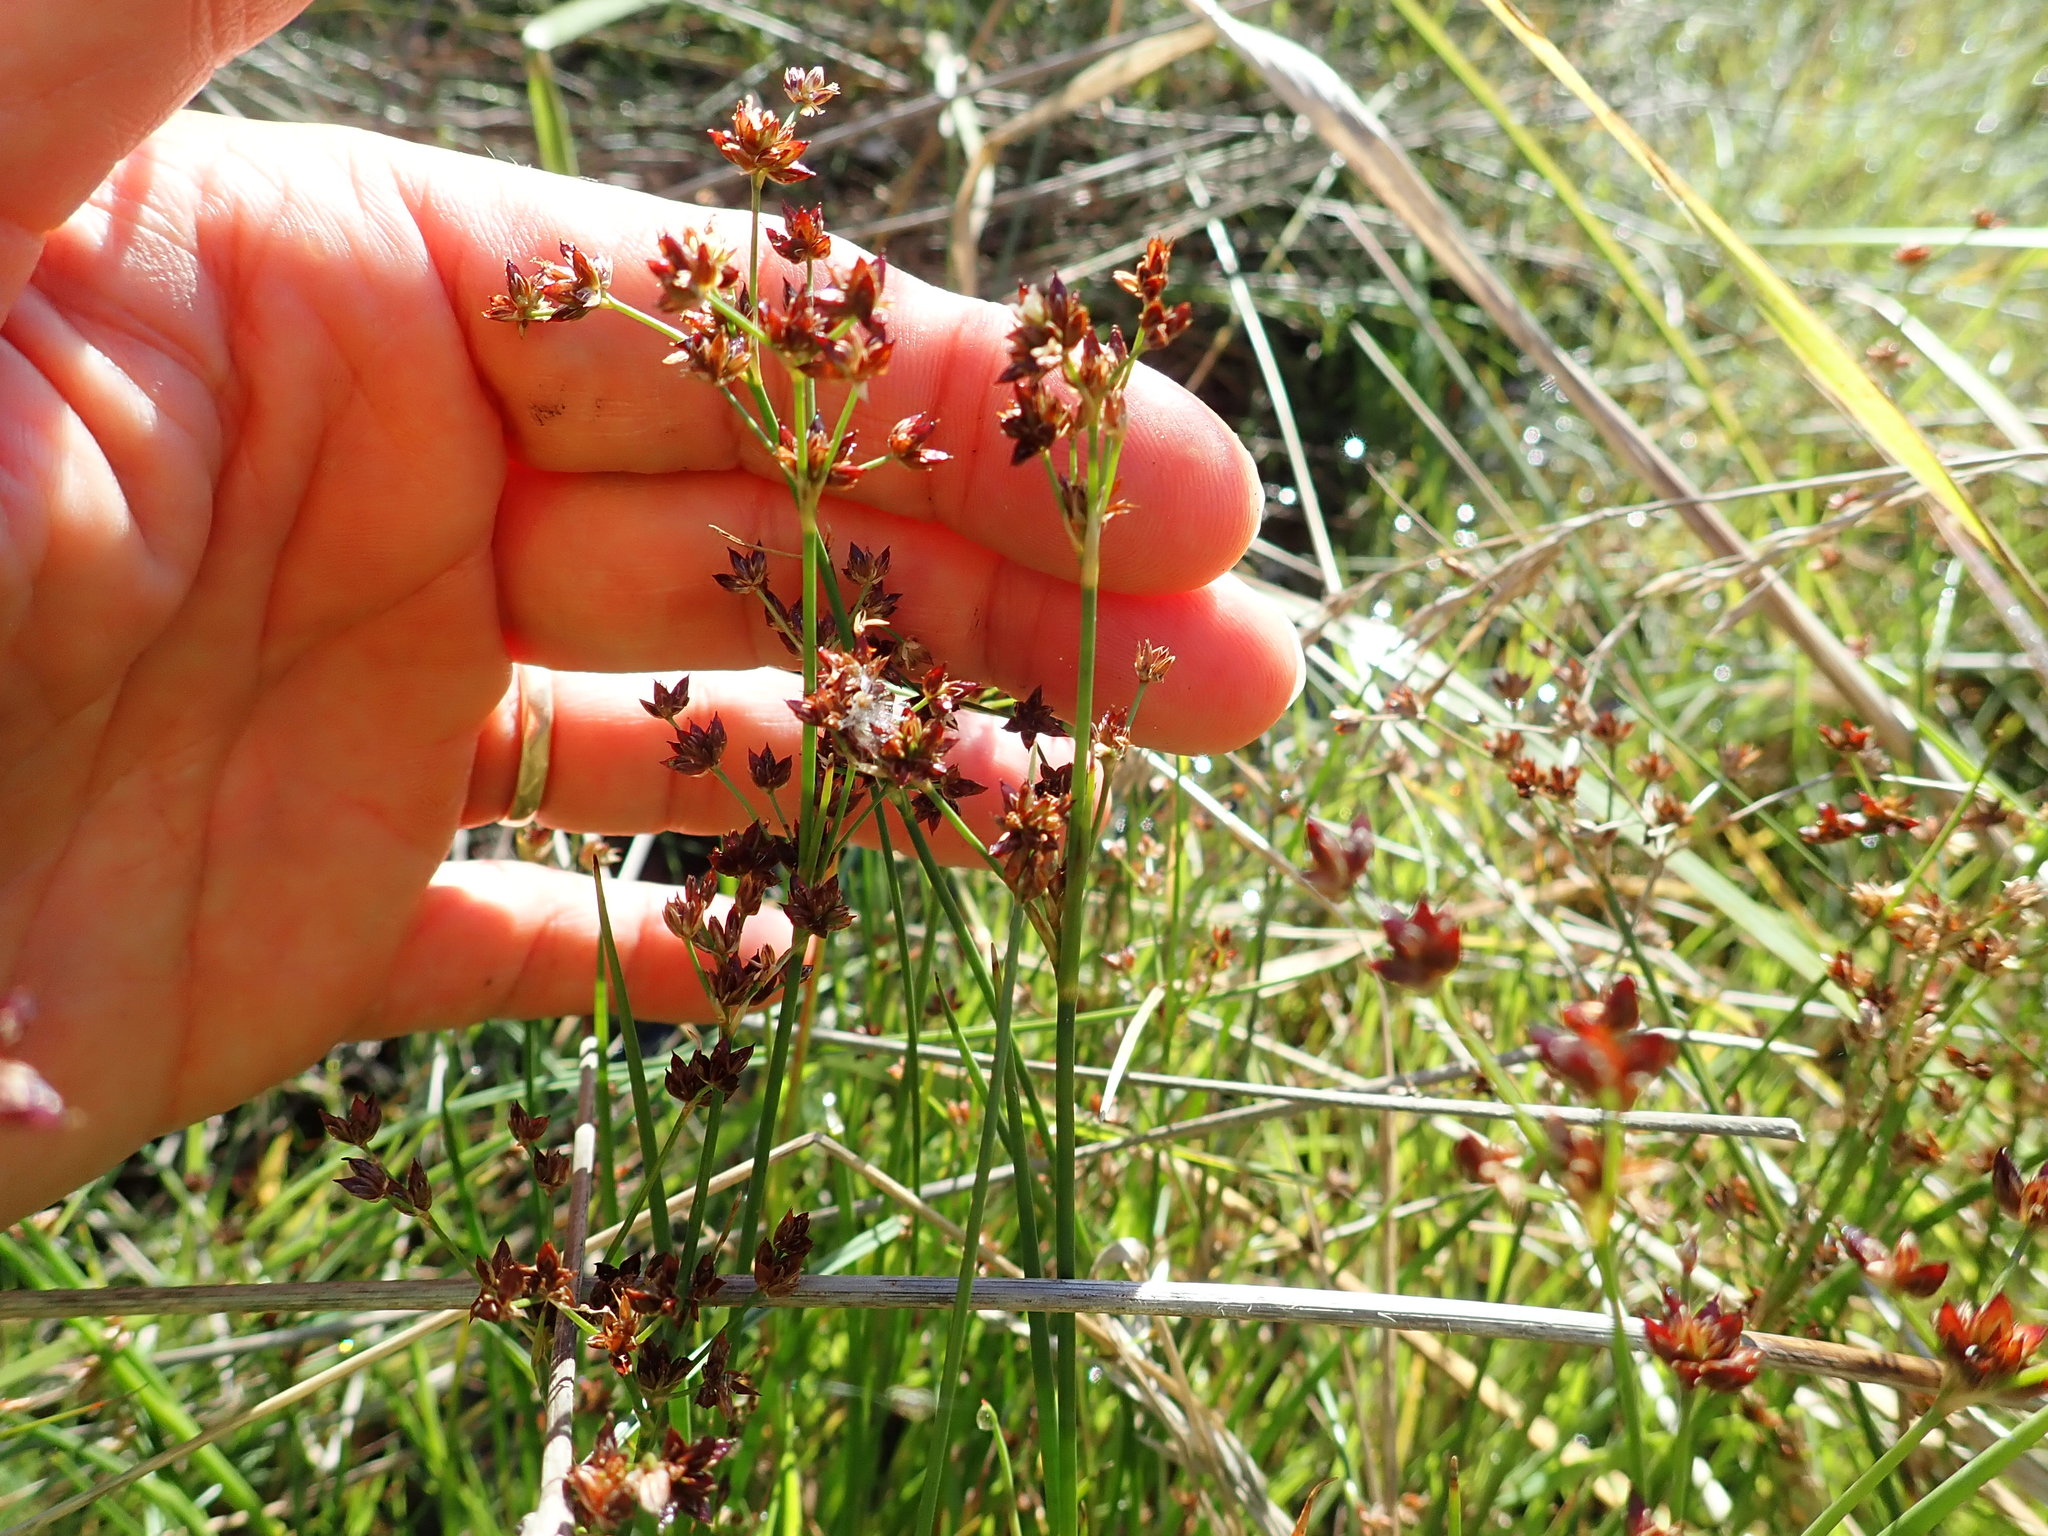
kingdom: Plantae
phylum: Tracheophyta
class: Liliopsida
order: Poales
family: Juncaceae
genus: Juncus
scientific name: Juncus articulatus
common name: Jointed rush
